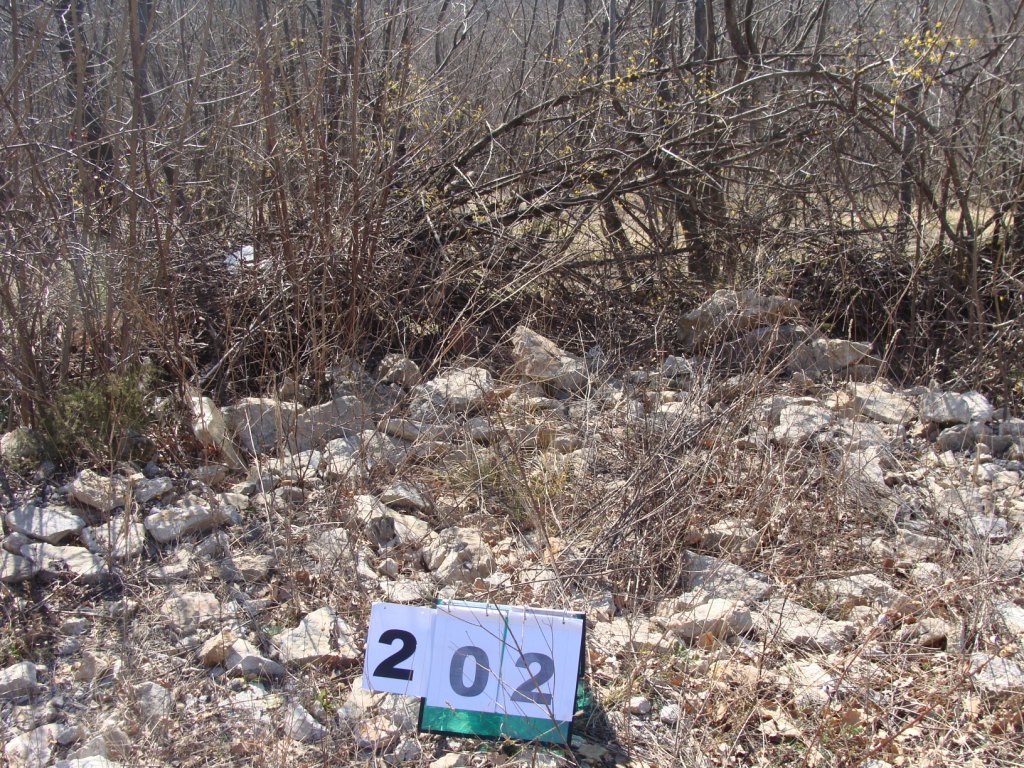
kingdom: Plantae
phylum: Tracheophyta
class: Magnoliopsida
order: Cornales
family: Cornaceae
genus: Cornus
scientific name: Cornus mas
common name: Cornelian-cherry
